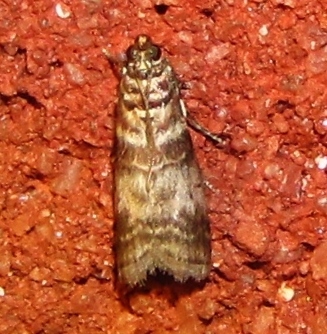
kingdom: Animalia
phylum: Arthropoda
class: Insecta
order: Lepidoptera
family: Pyralidae
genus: Sciota
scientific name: Sciota uvinella
